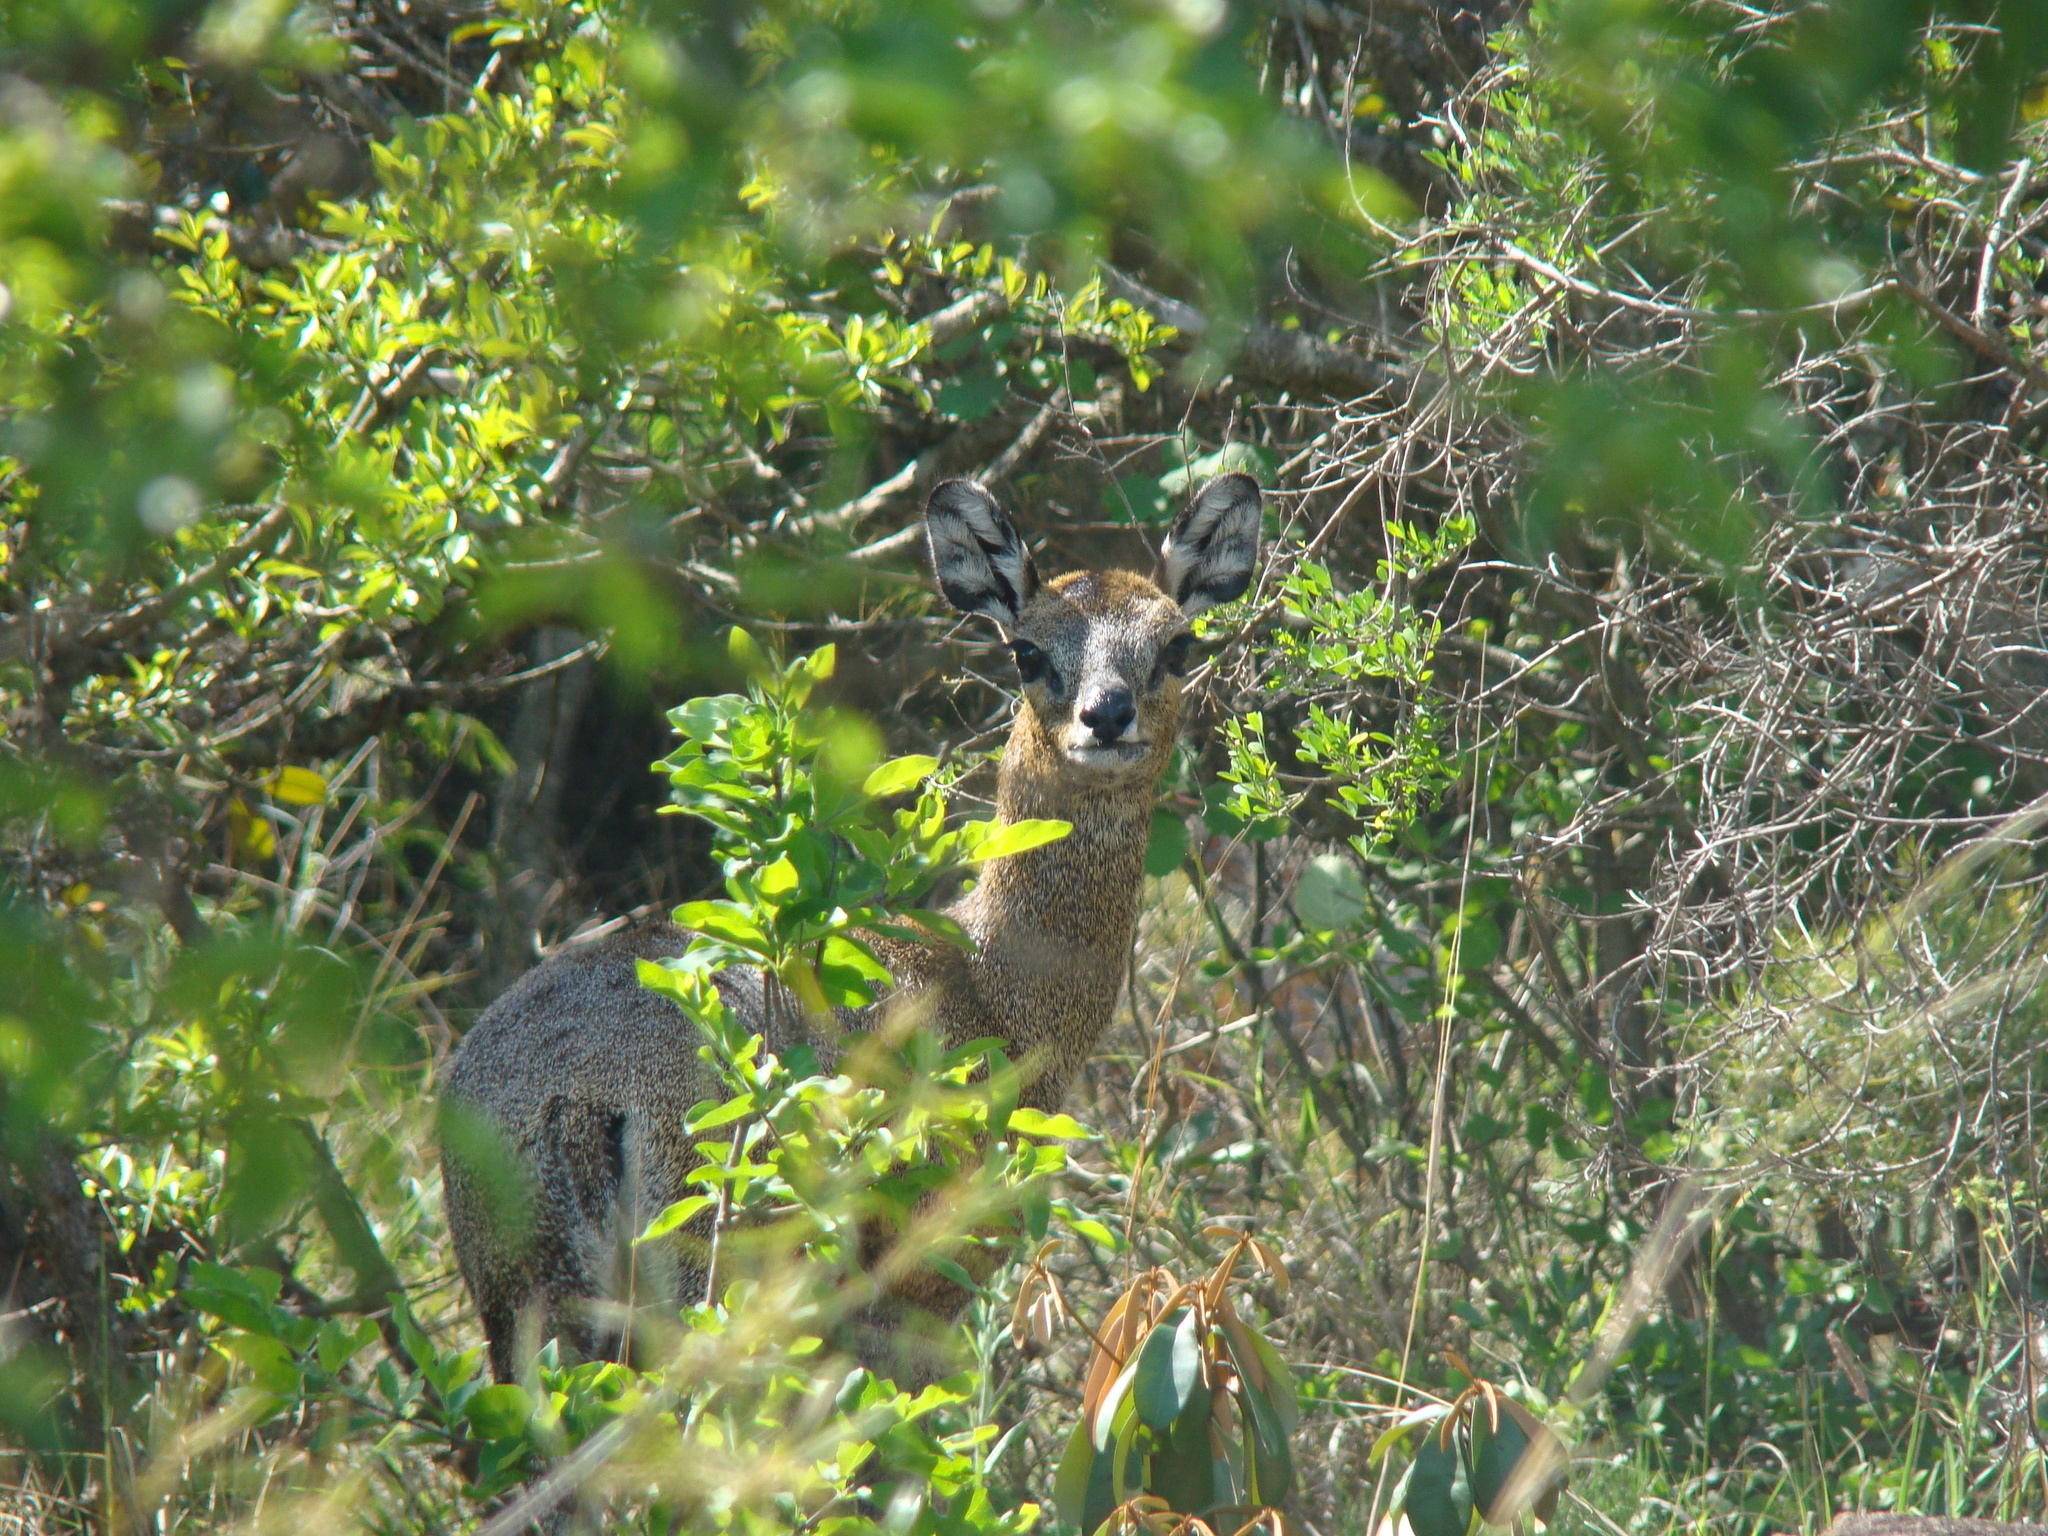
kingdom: Animalia
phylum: Chordata
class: Mammalia
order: Artiodactyla
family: Bovidae
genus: Oreotragus
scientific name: Oreotragus oreotragus
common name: Klipspringer
